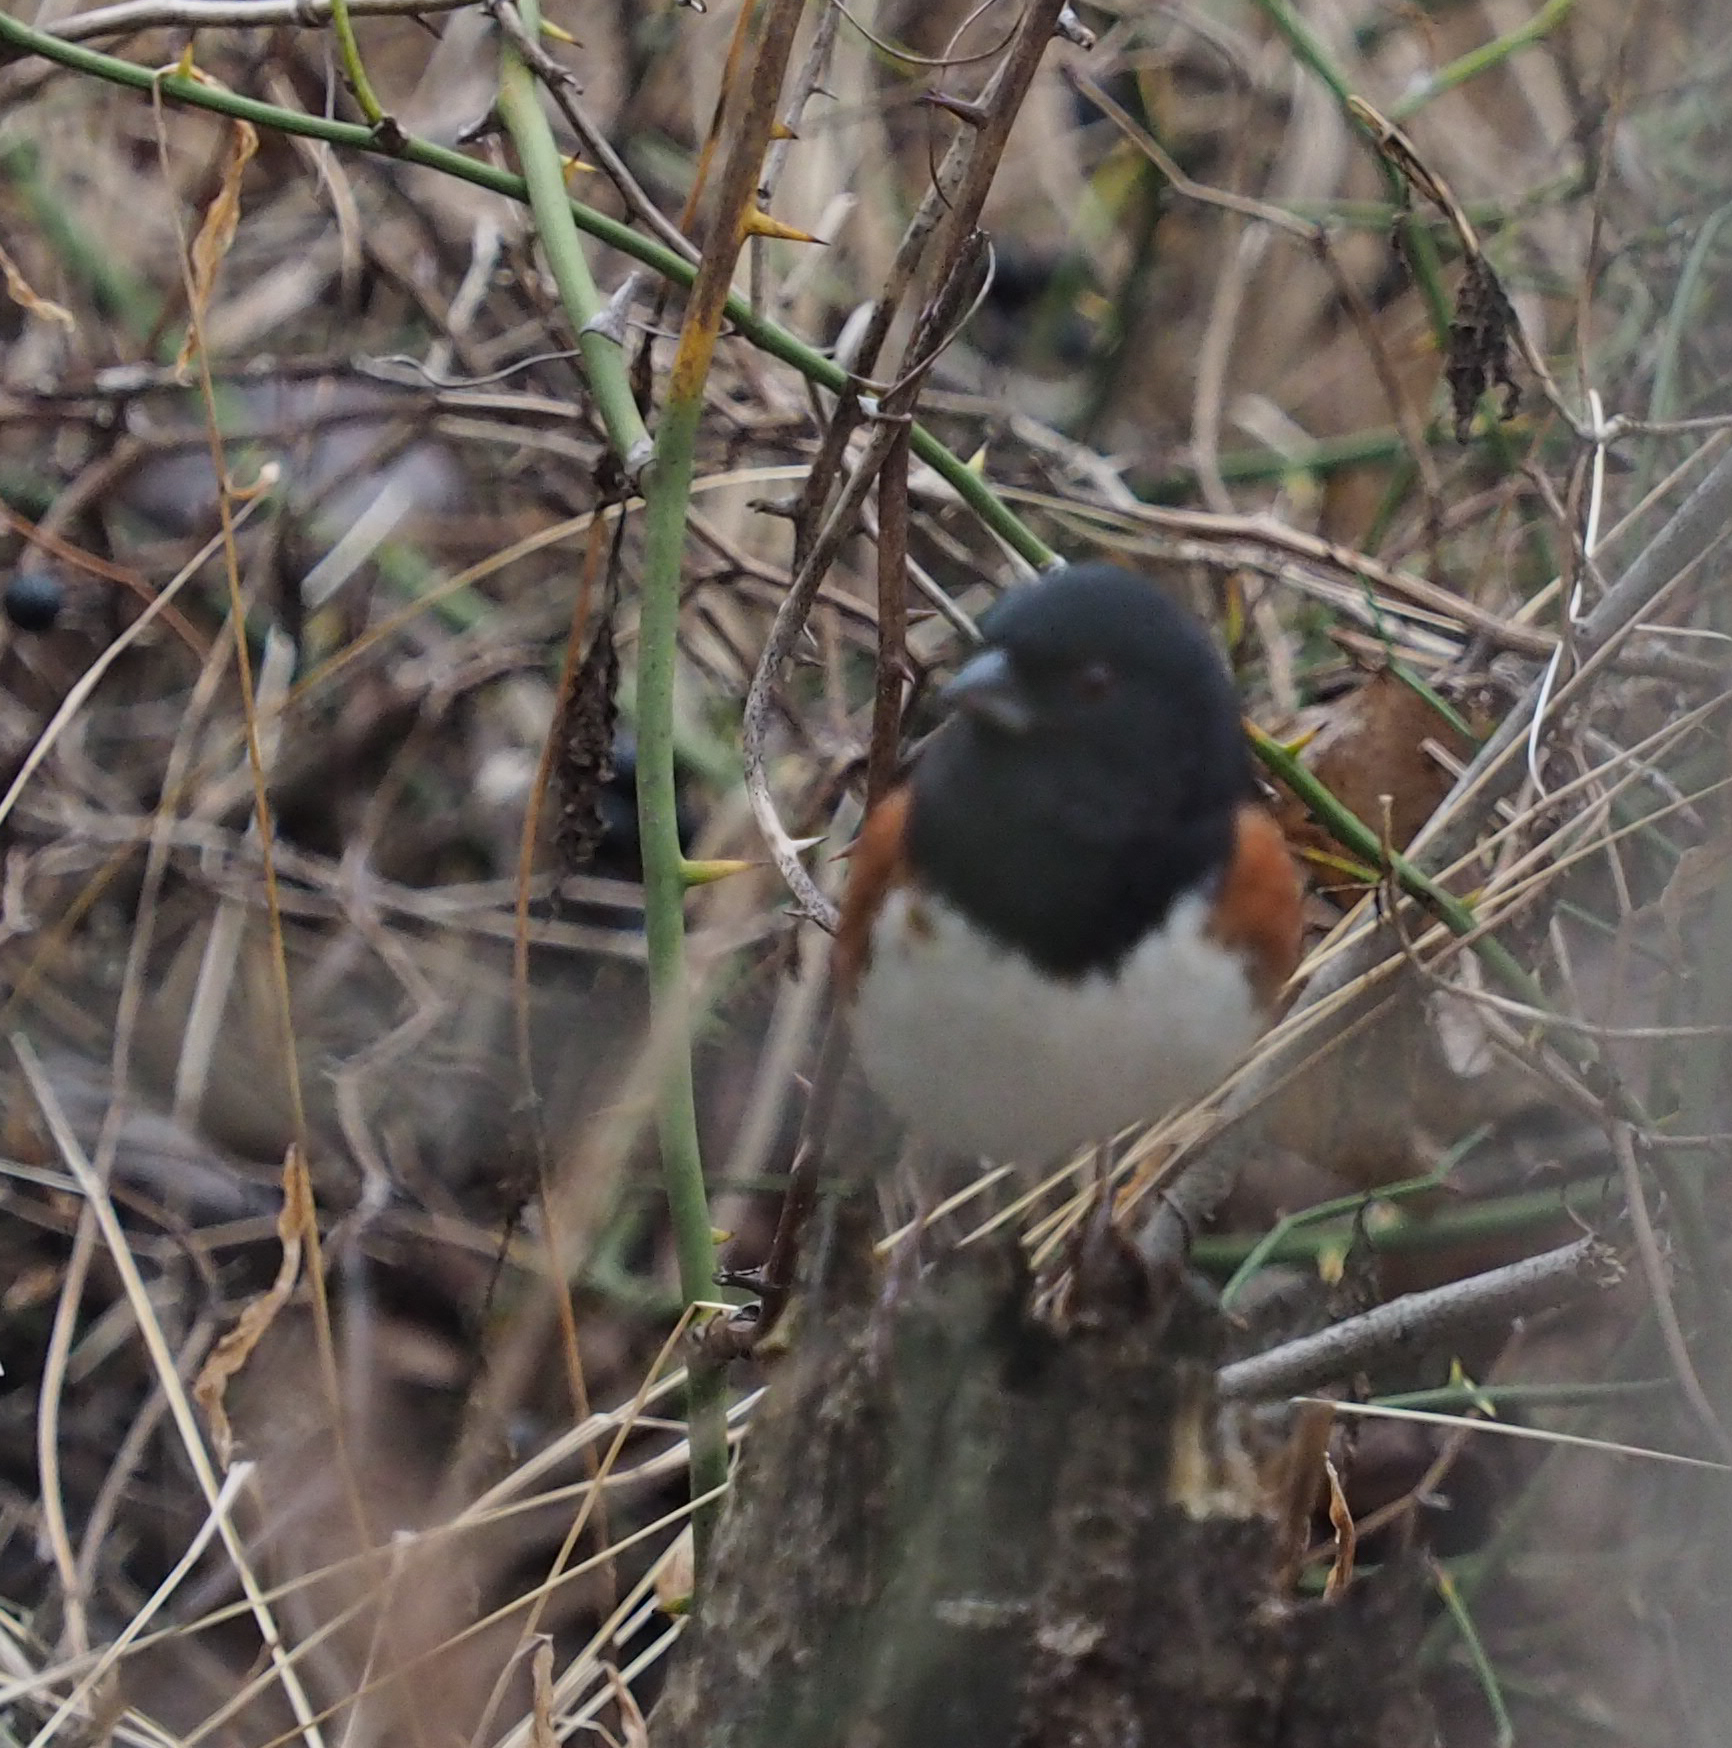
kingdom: Animalia
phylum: Chordata
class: Aves
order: Passeriformes
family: Passerellidae
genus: Pipilo
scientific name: Pipilo erythrophthalmus
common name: Eastern towhee
